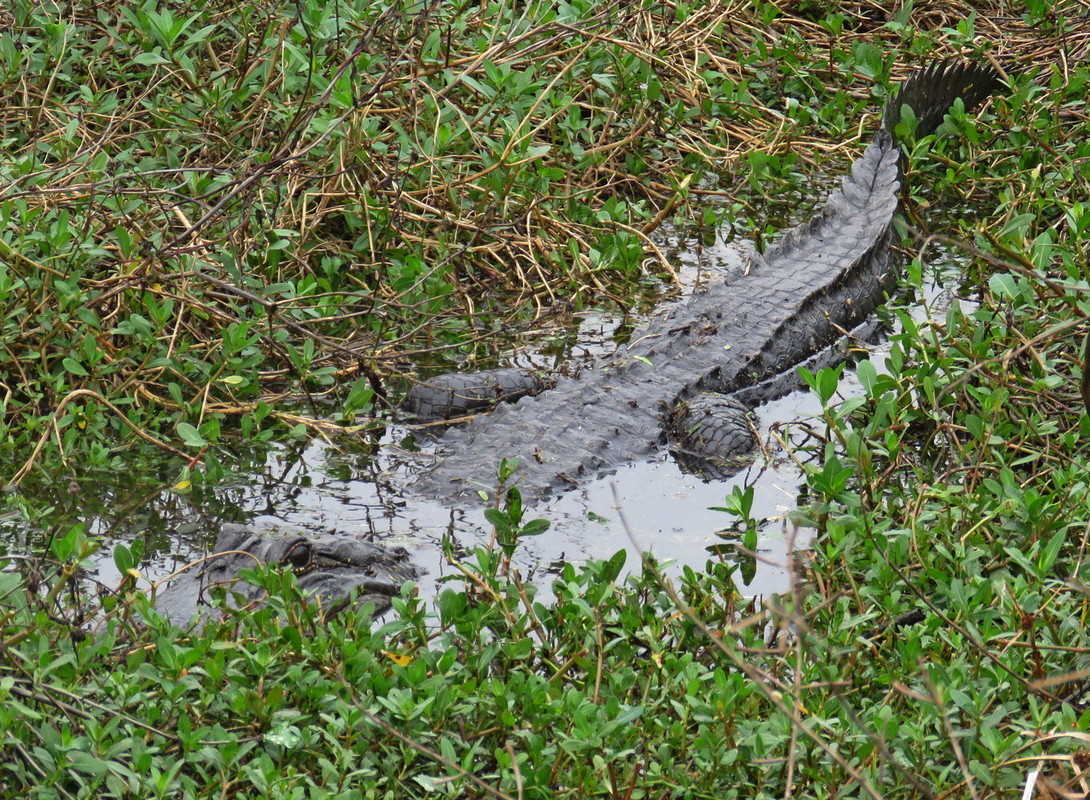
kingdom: Animalia
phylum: Chordata
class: Crocodylia
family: Alligatoridae
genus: Alligator
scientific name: Alligator mississippiensis
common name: American alligator
